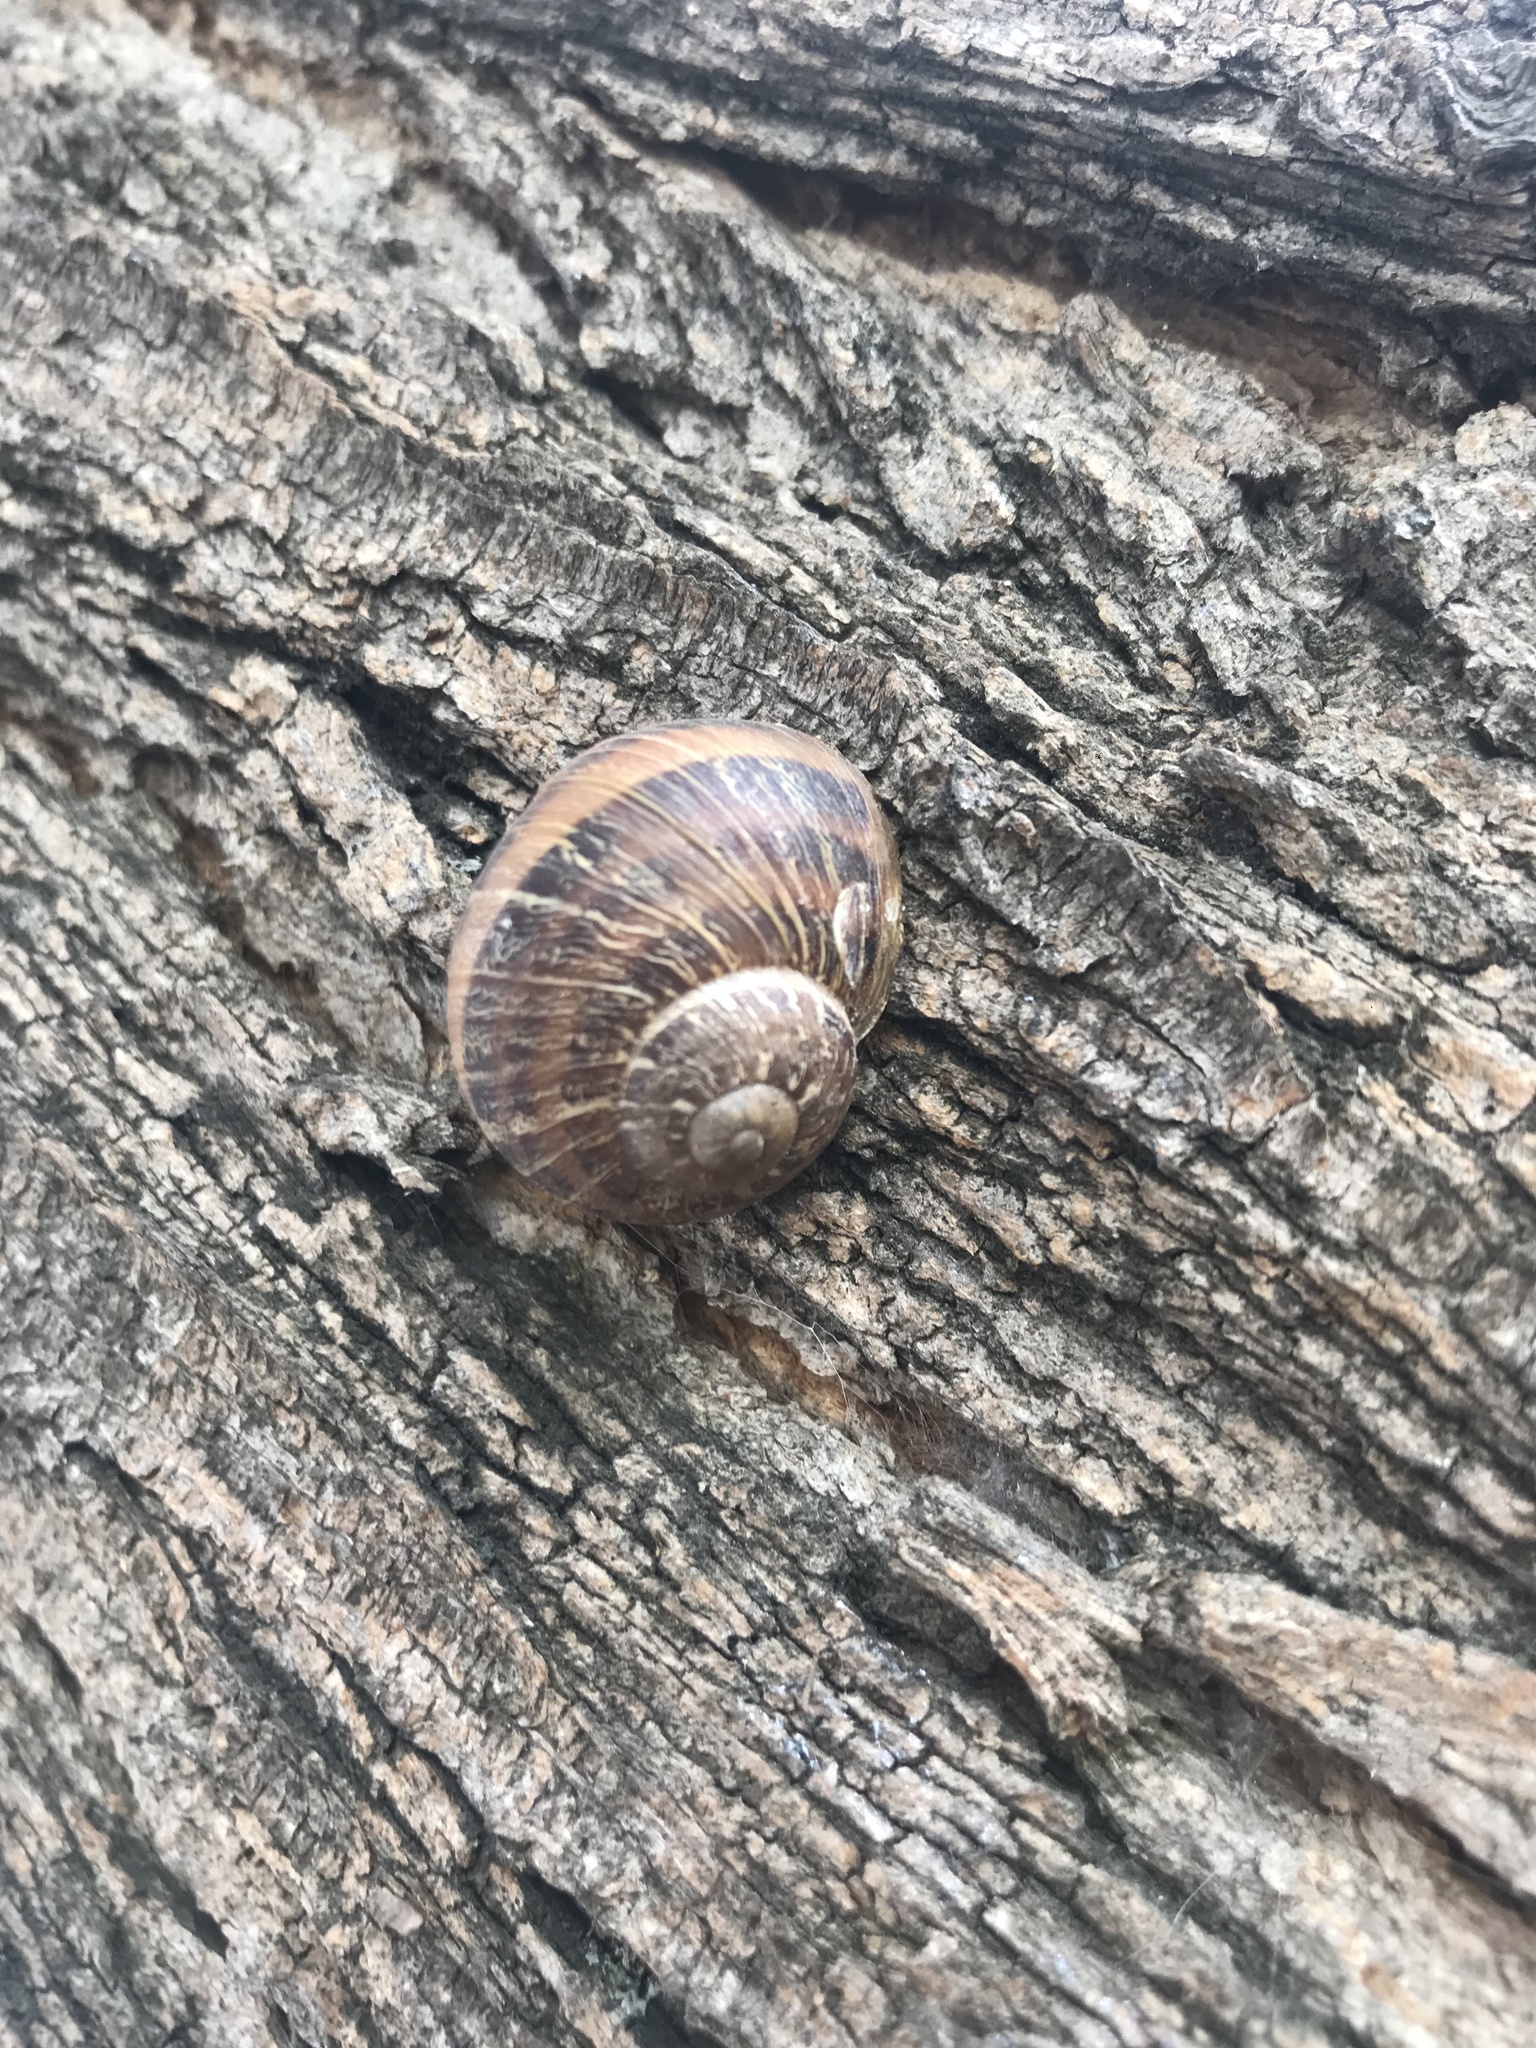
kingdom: Animalia
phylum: Mollusca
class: Gastropoda
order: Stylommatophora
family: Helicidae
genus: Cornu
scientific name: Cornu aspersum
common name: Brown garden snail
